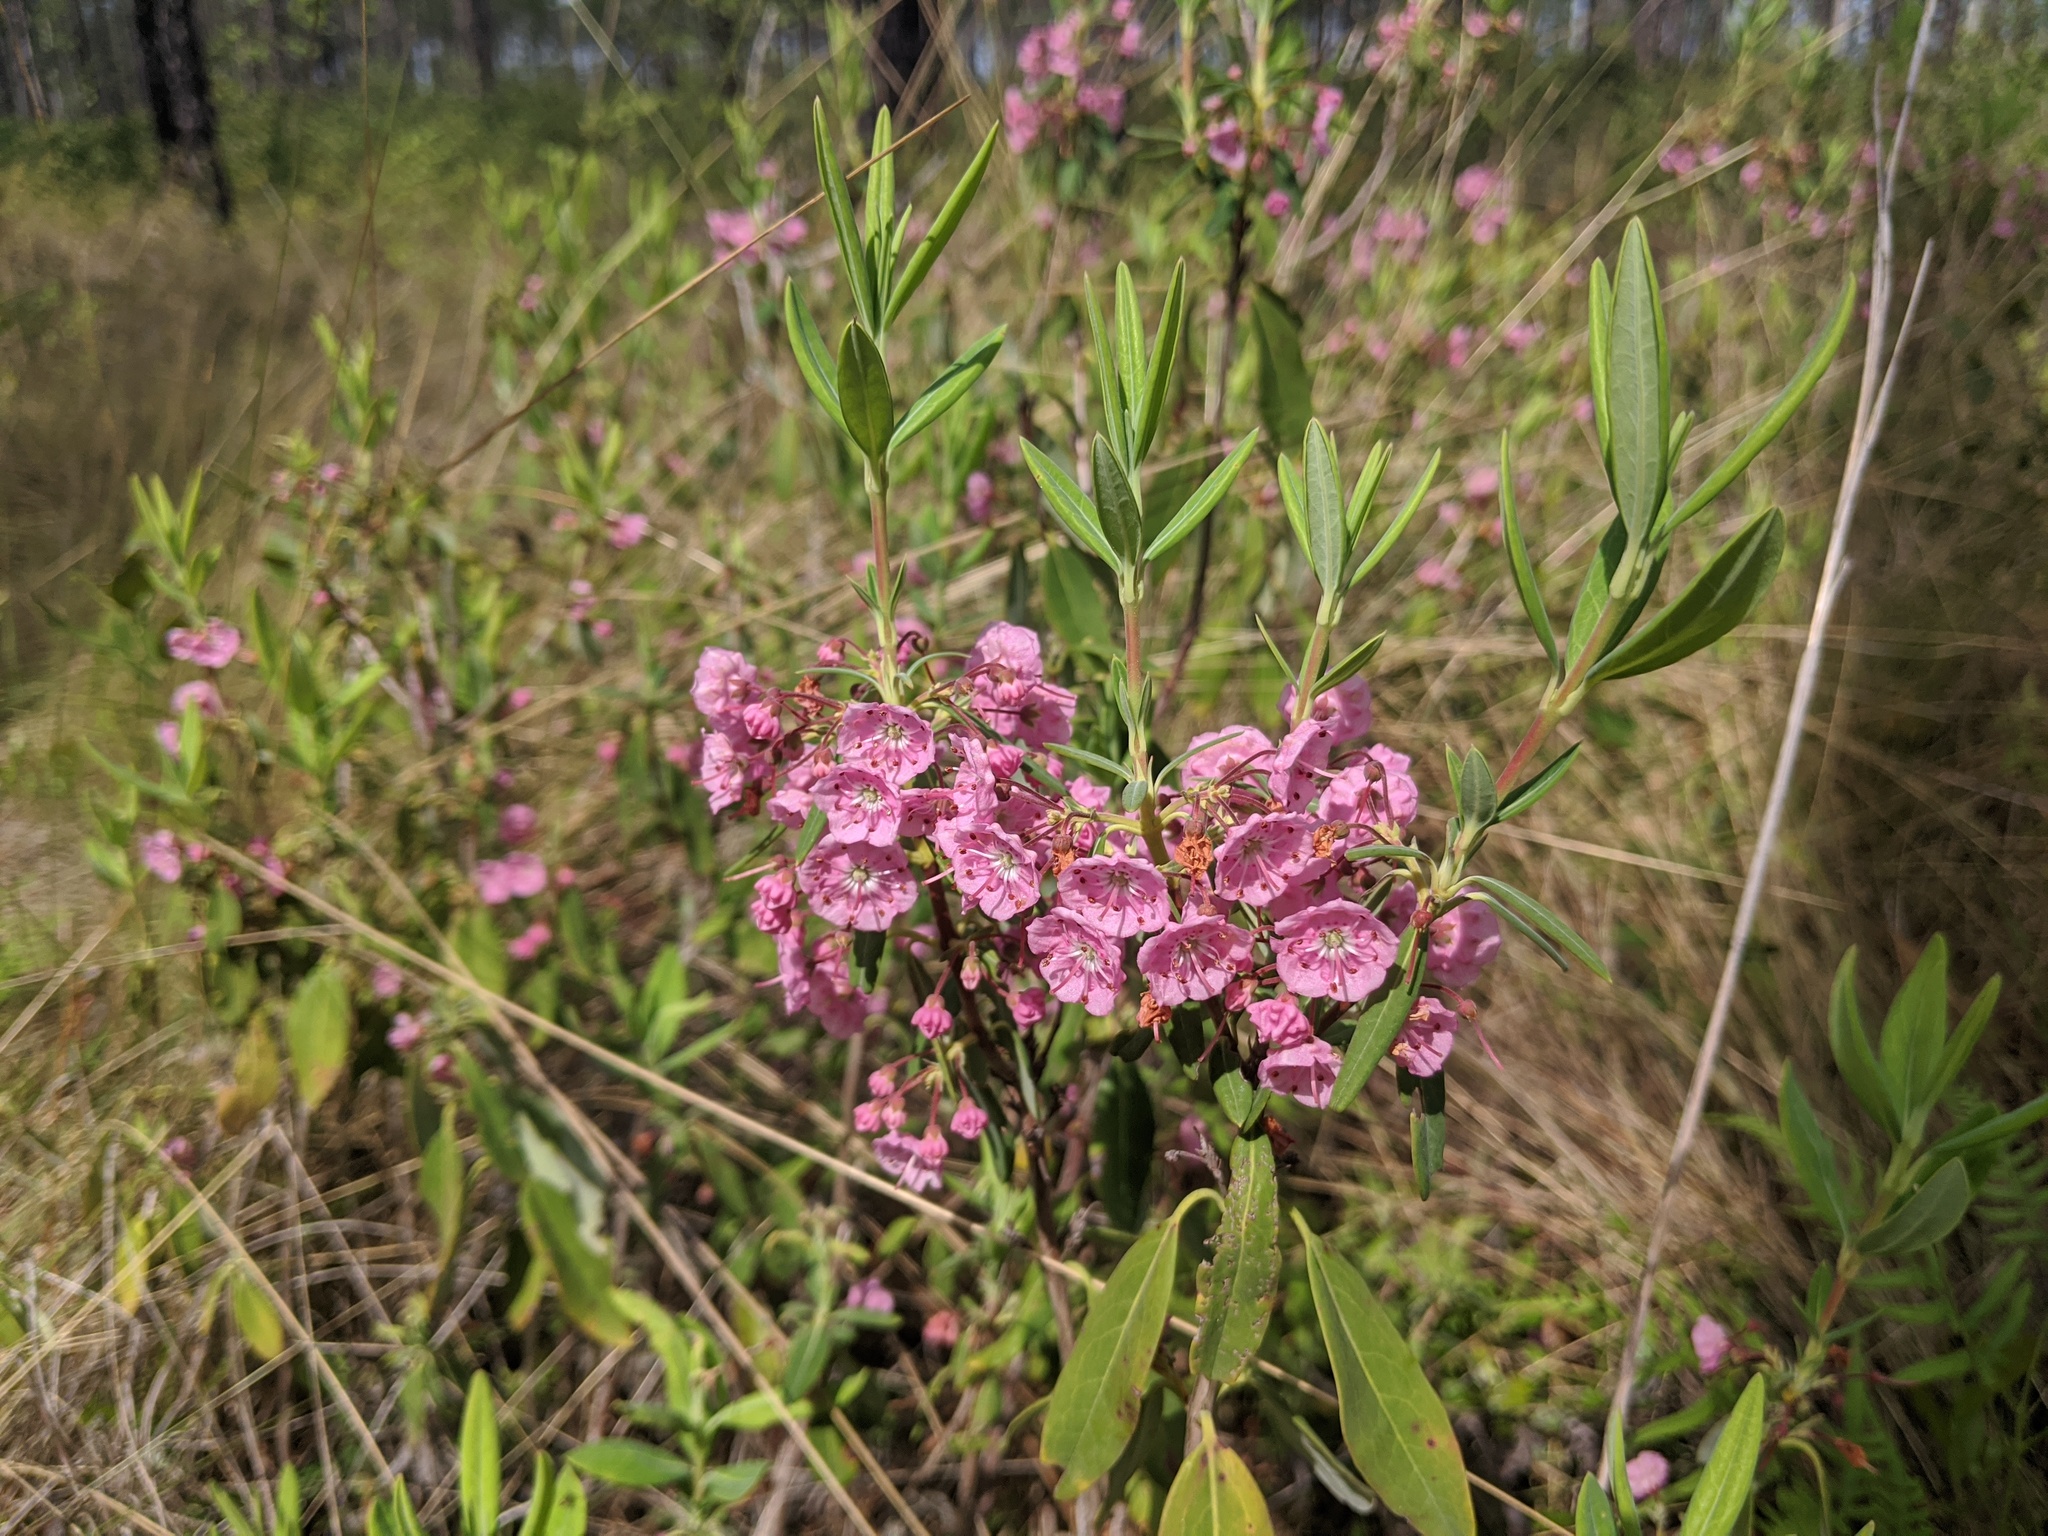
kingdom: Plantae
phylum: Tracheophyta
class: Magnoliopsida
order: Ericales
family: Ericaceae
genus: Kalmia
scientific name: Kalmia angustifolia
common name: Sheep-laurel
